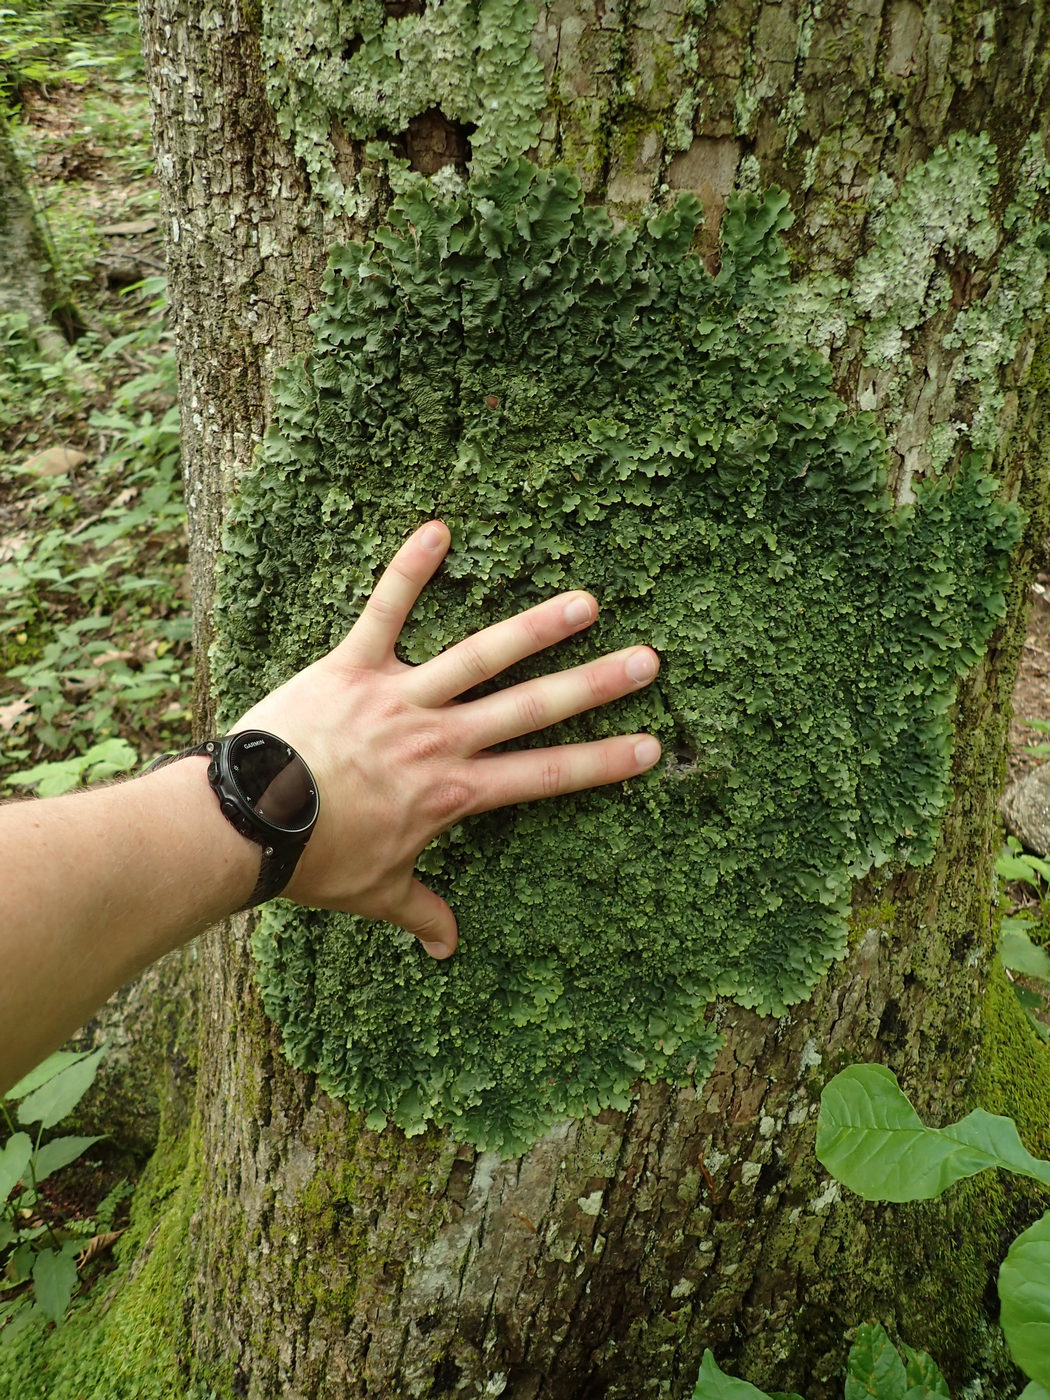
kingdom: Fungi
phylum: Ascomycota
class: Lecanoromycetes
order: Peltigerales
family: Lobariaceae
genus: Ricasolia
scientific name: Ricasolia quercizans
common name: Smooth lungwort
